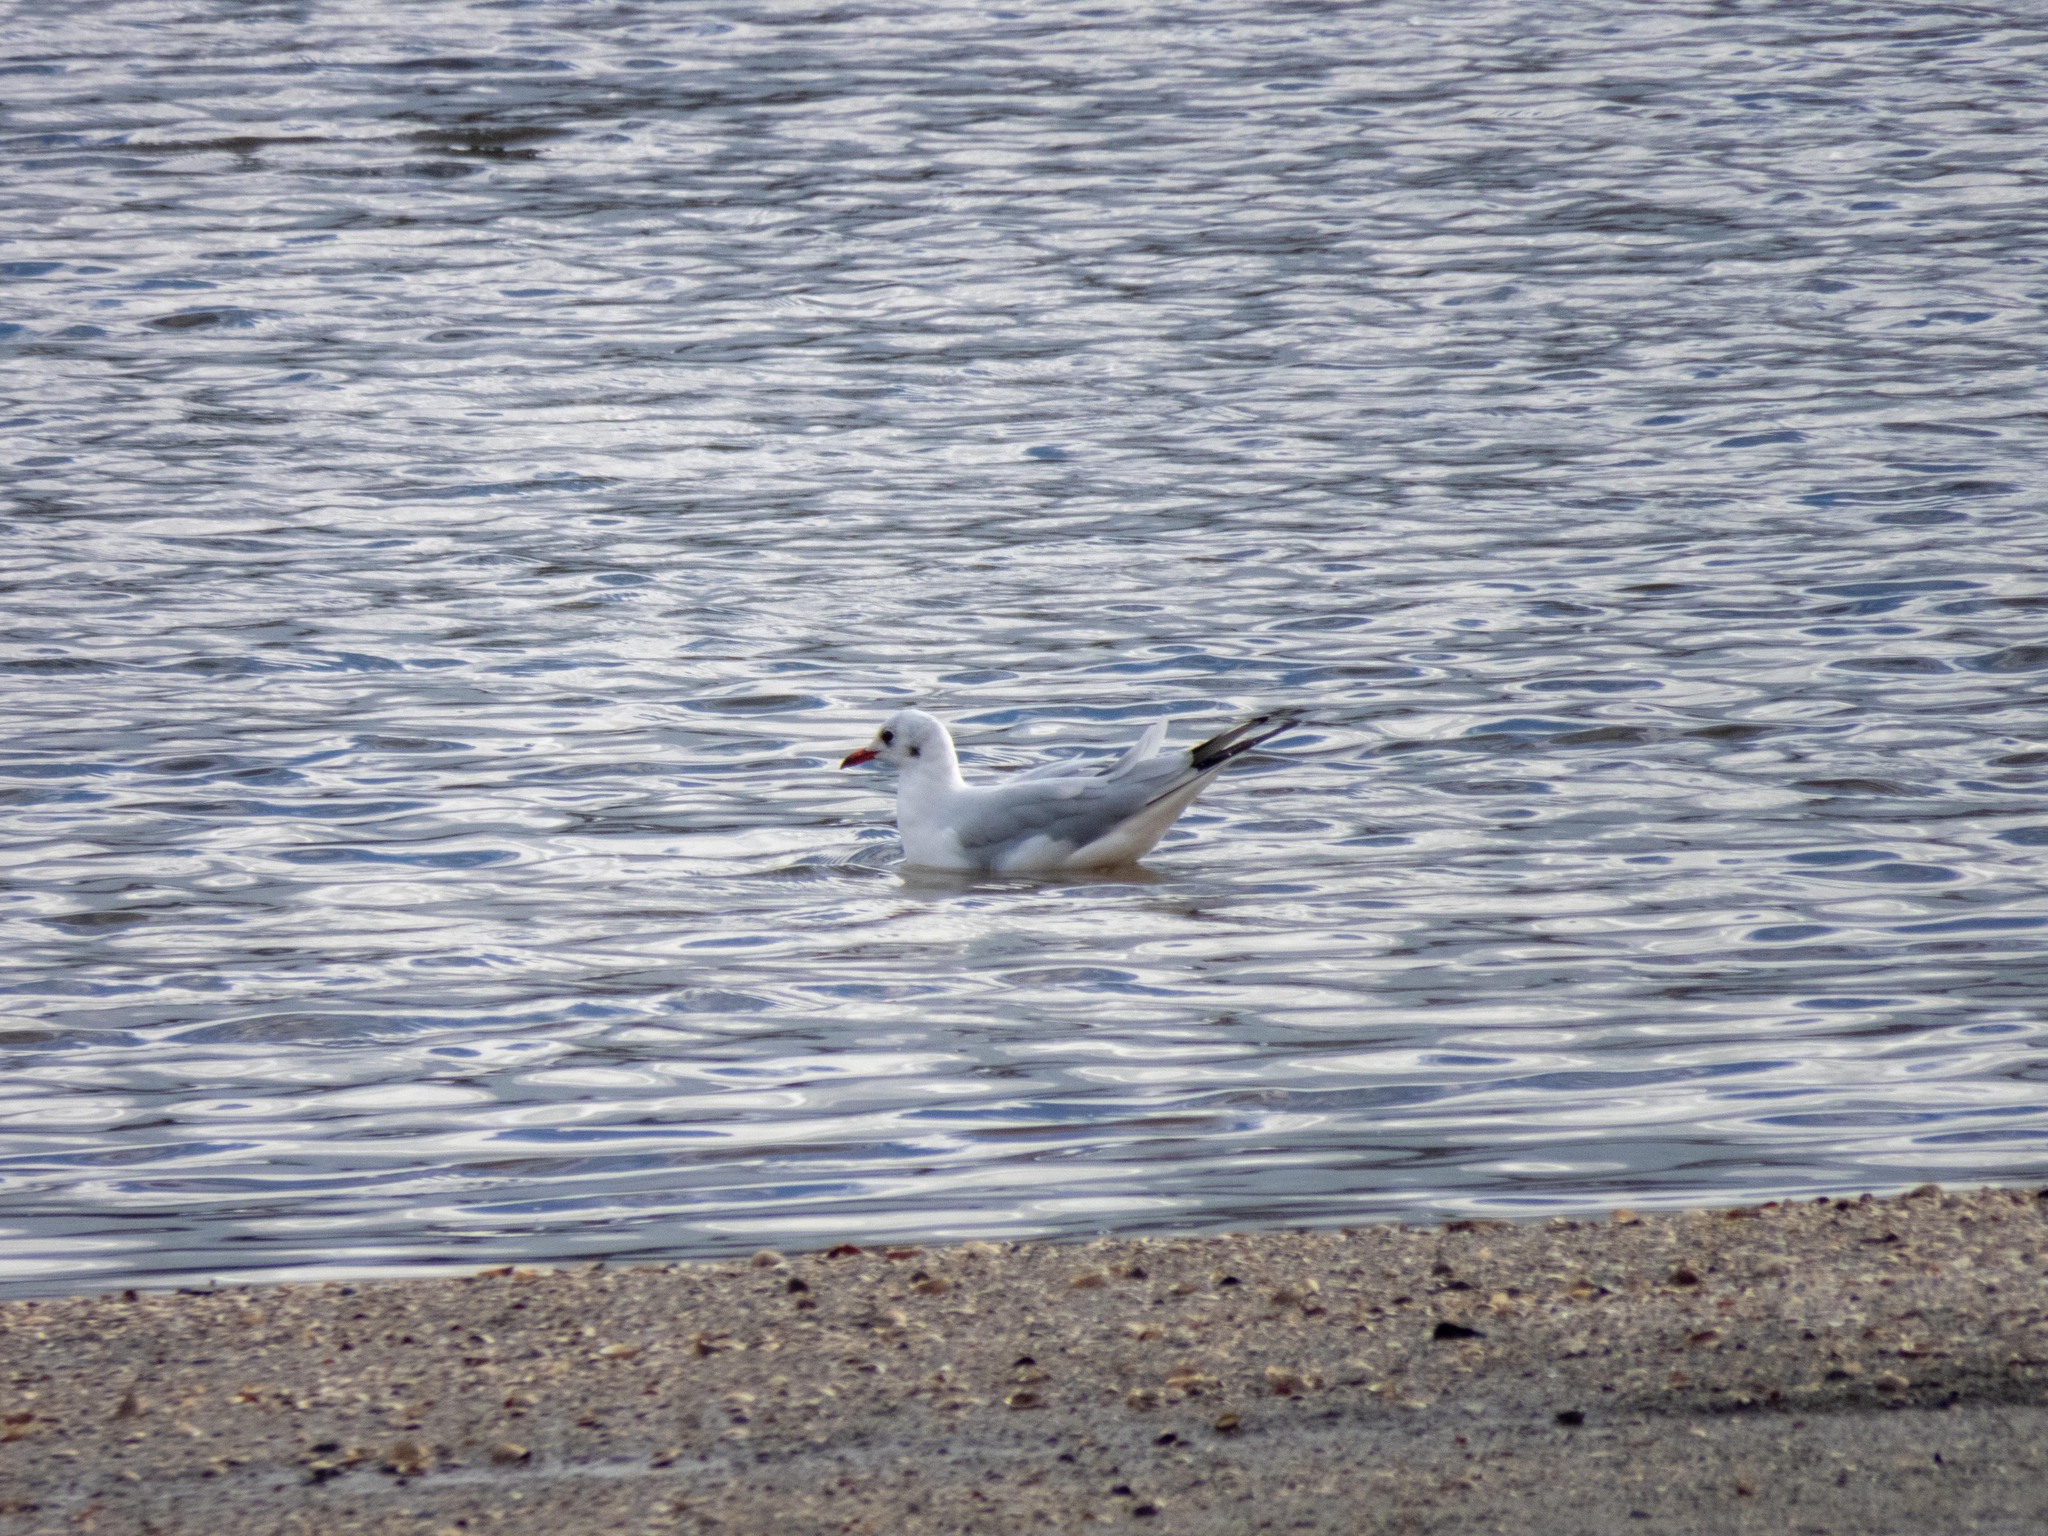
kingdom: Animalia
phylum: Chordata
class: Aves
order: Charadriiformes
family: Laridae
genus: Chroicocephalus
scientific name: Chroicocephalus ridibundus
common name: Black-headed gull
